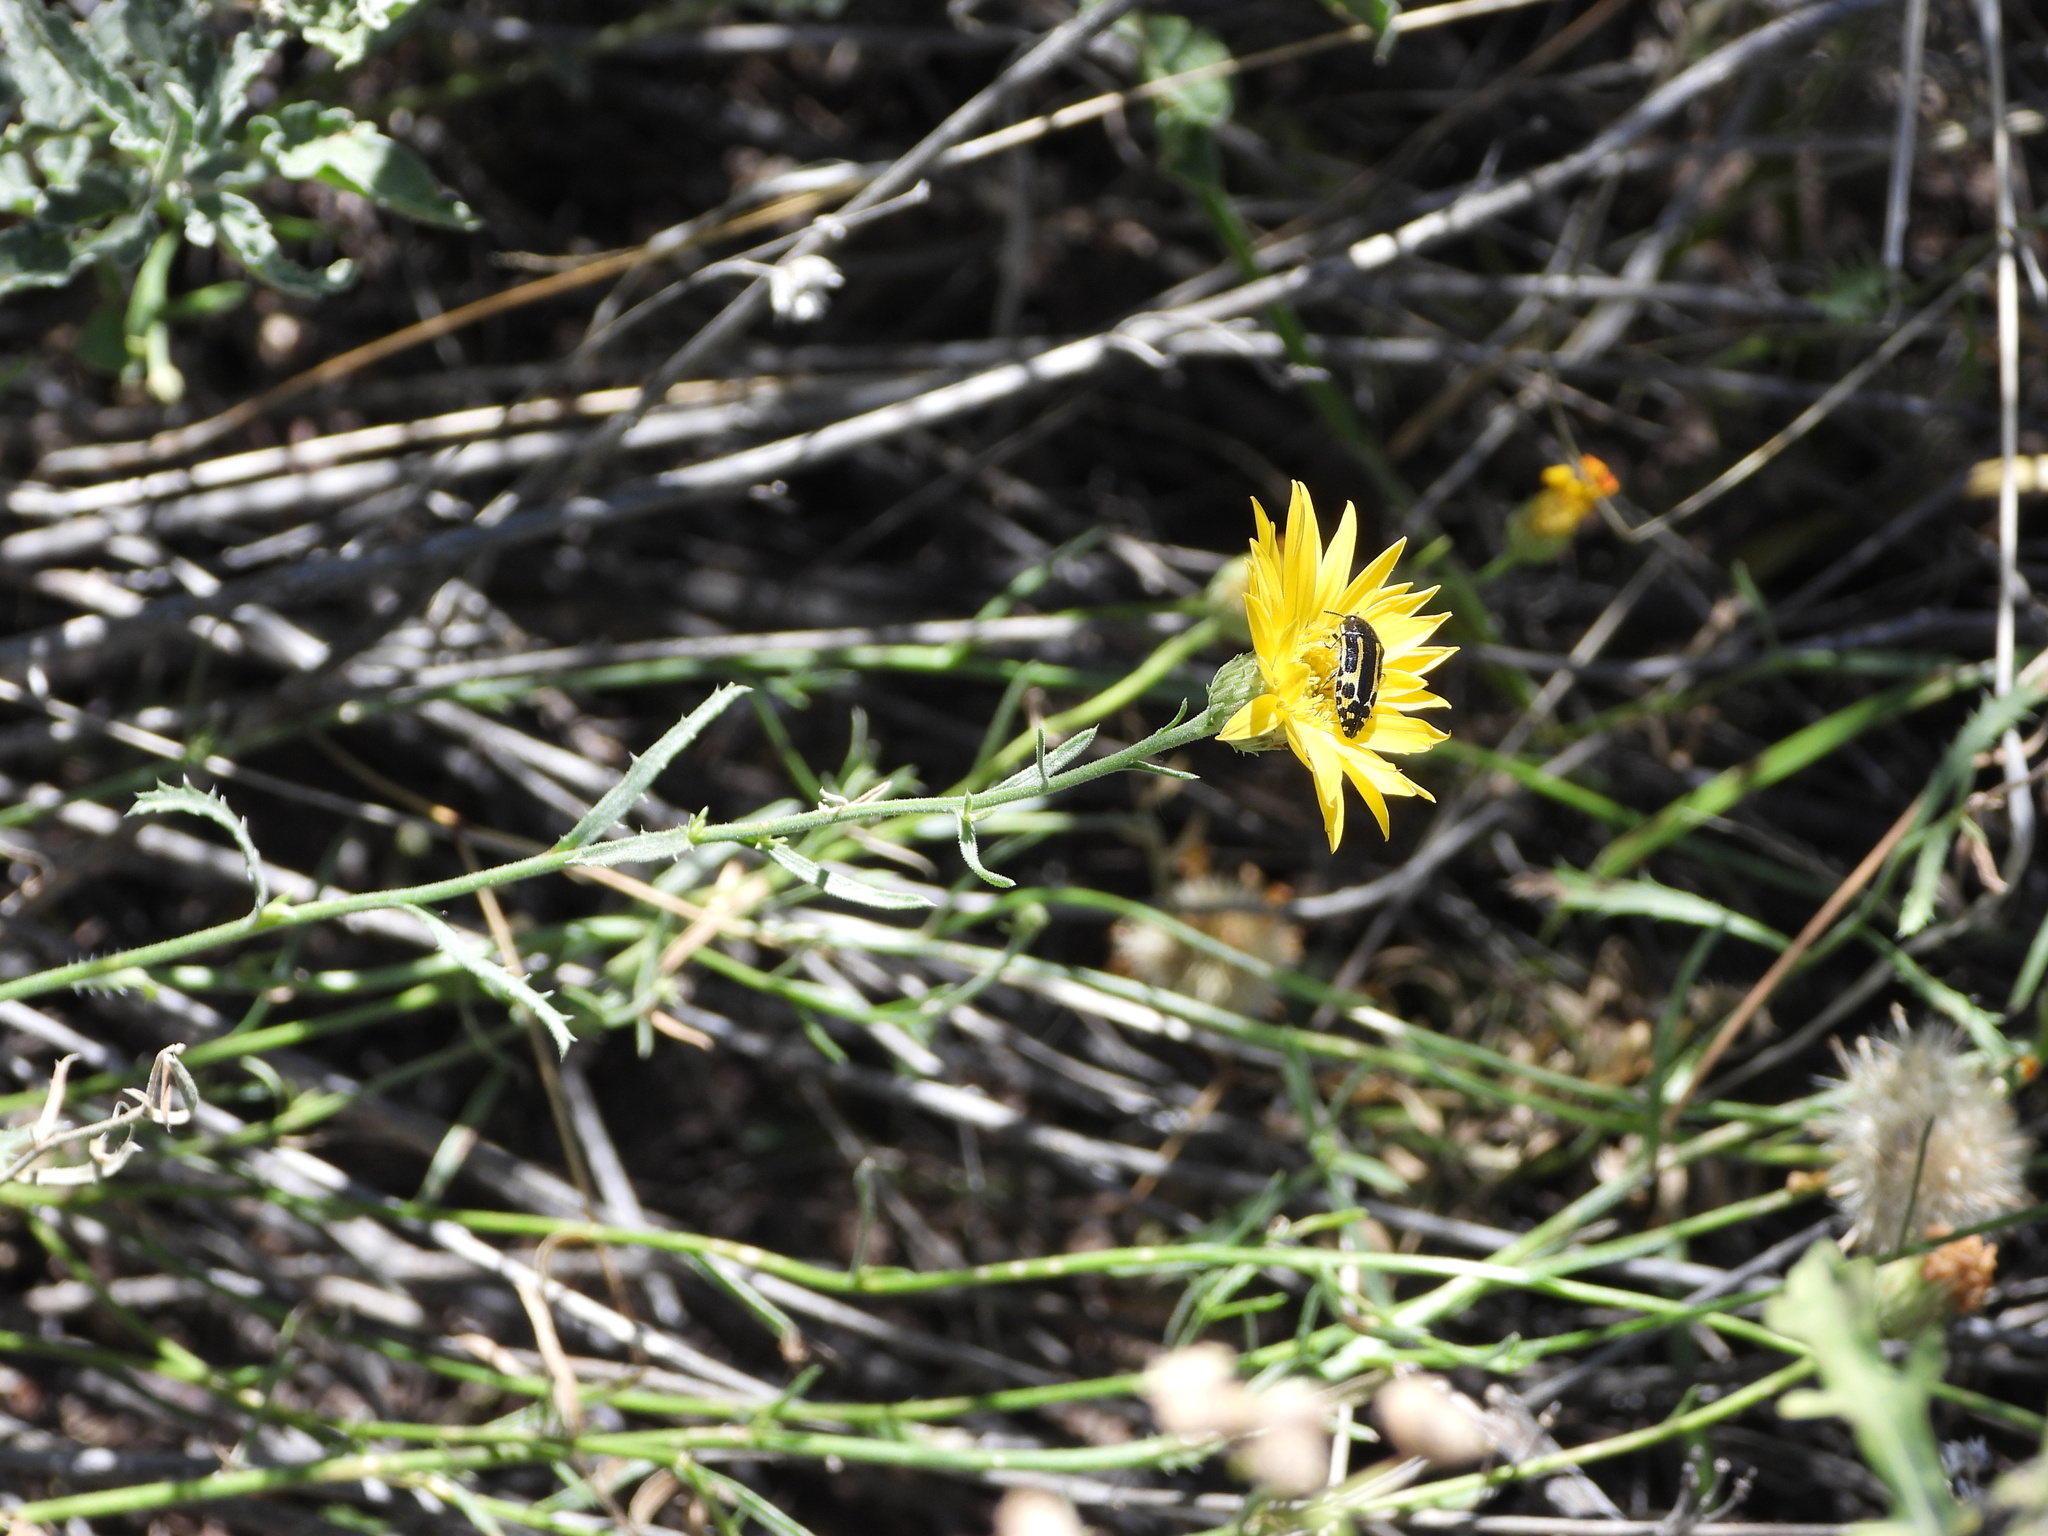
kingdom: Animalia
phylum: Arthropoda
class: Insecta
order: Coleoptera
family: Buprestidae
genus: Acmaeodera
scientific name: Acmaeodera scalaris
